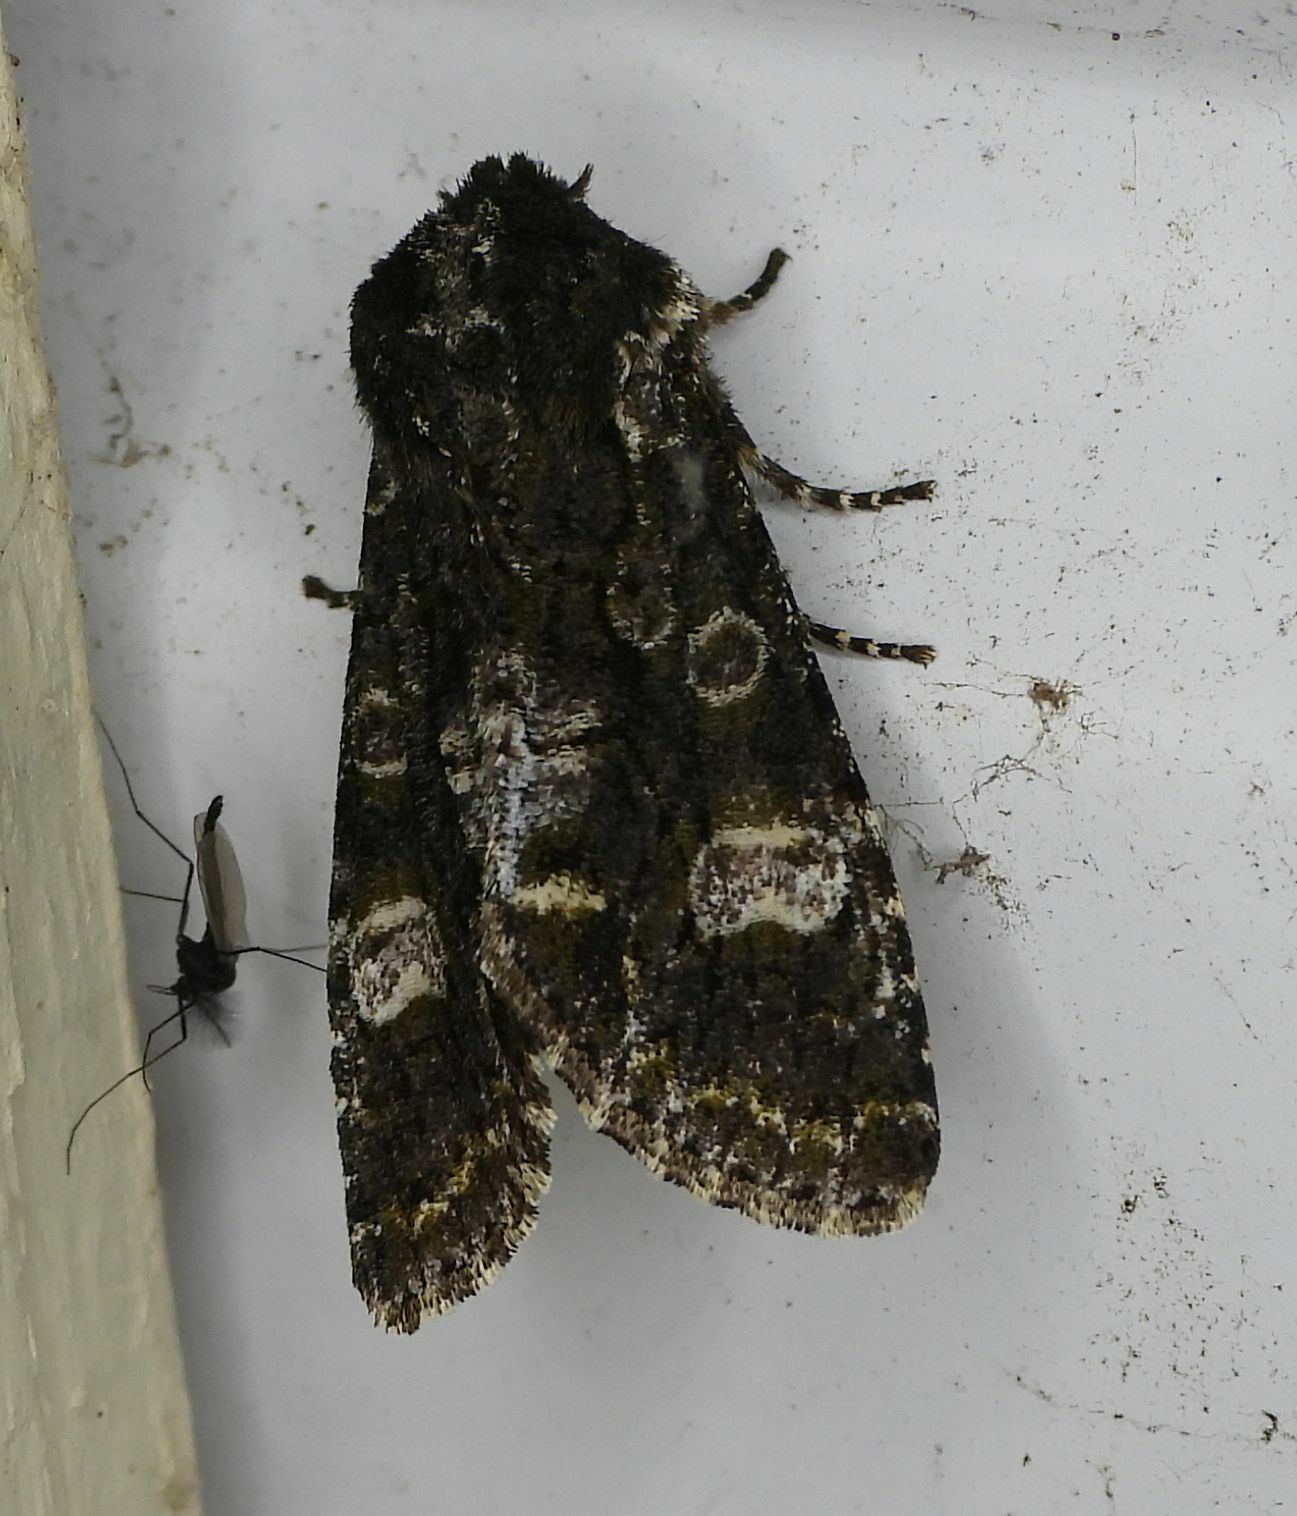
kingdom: Animalia
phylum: Arthropoda
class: Insecta
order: Lepidoptera
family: Noctuidae
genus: Psaphida
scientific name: Psaphida grotei
